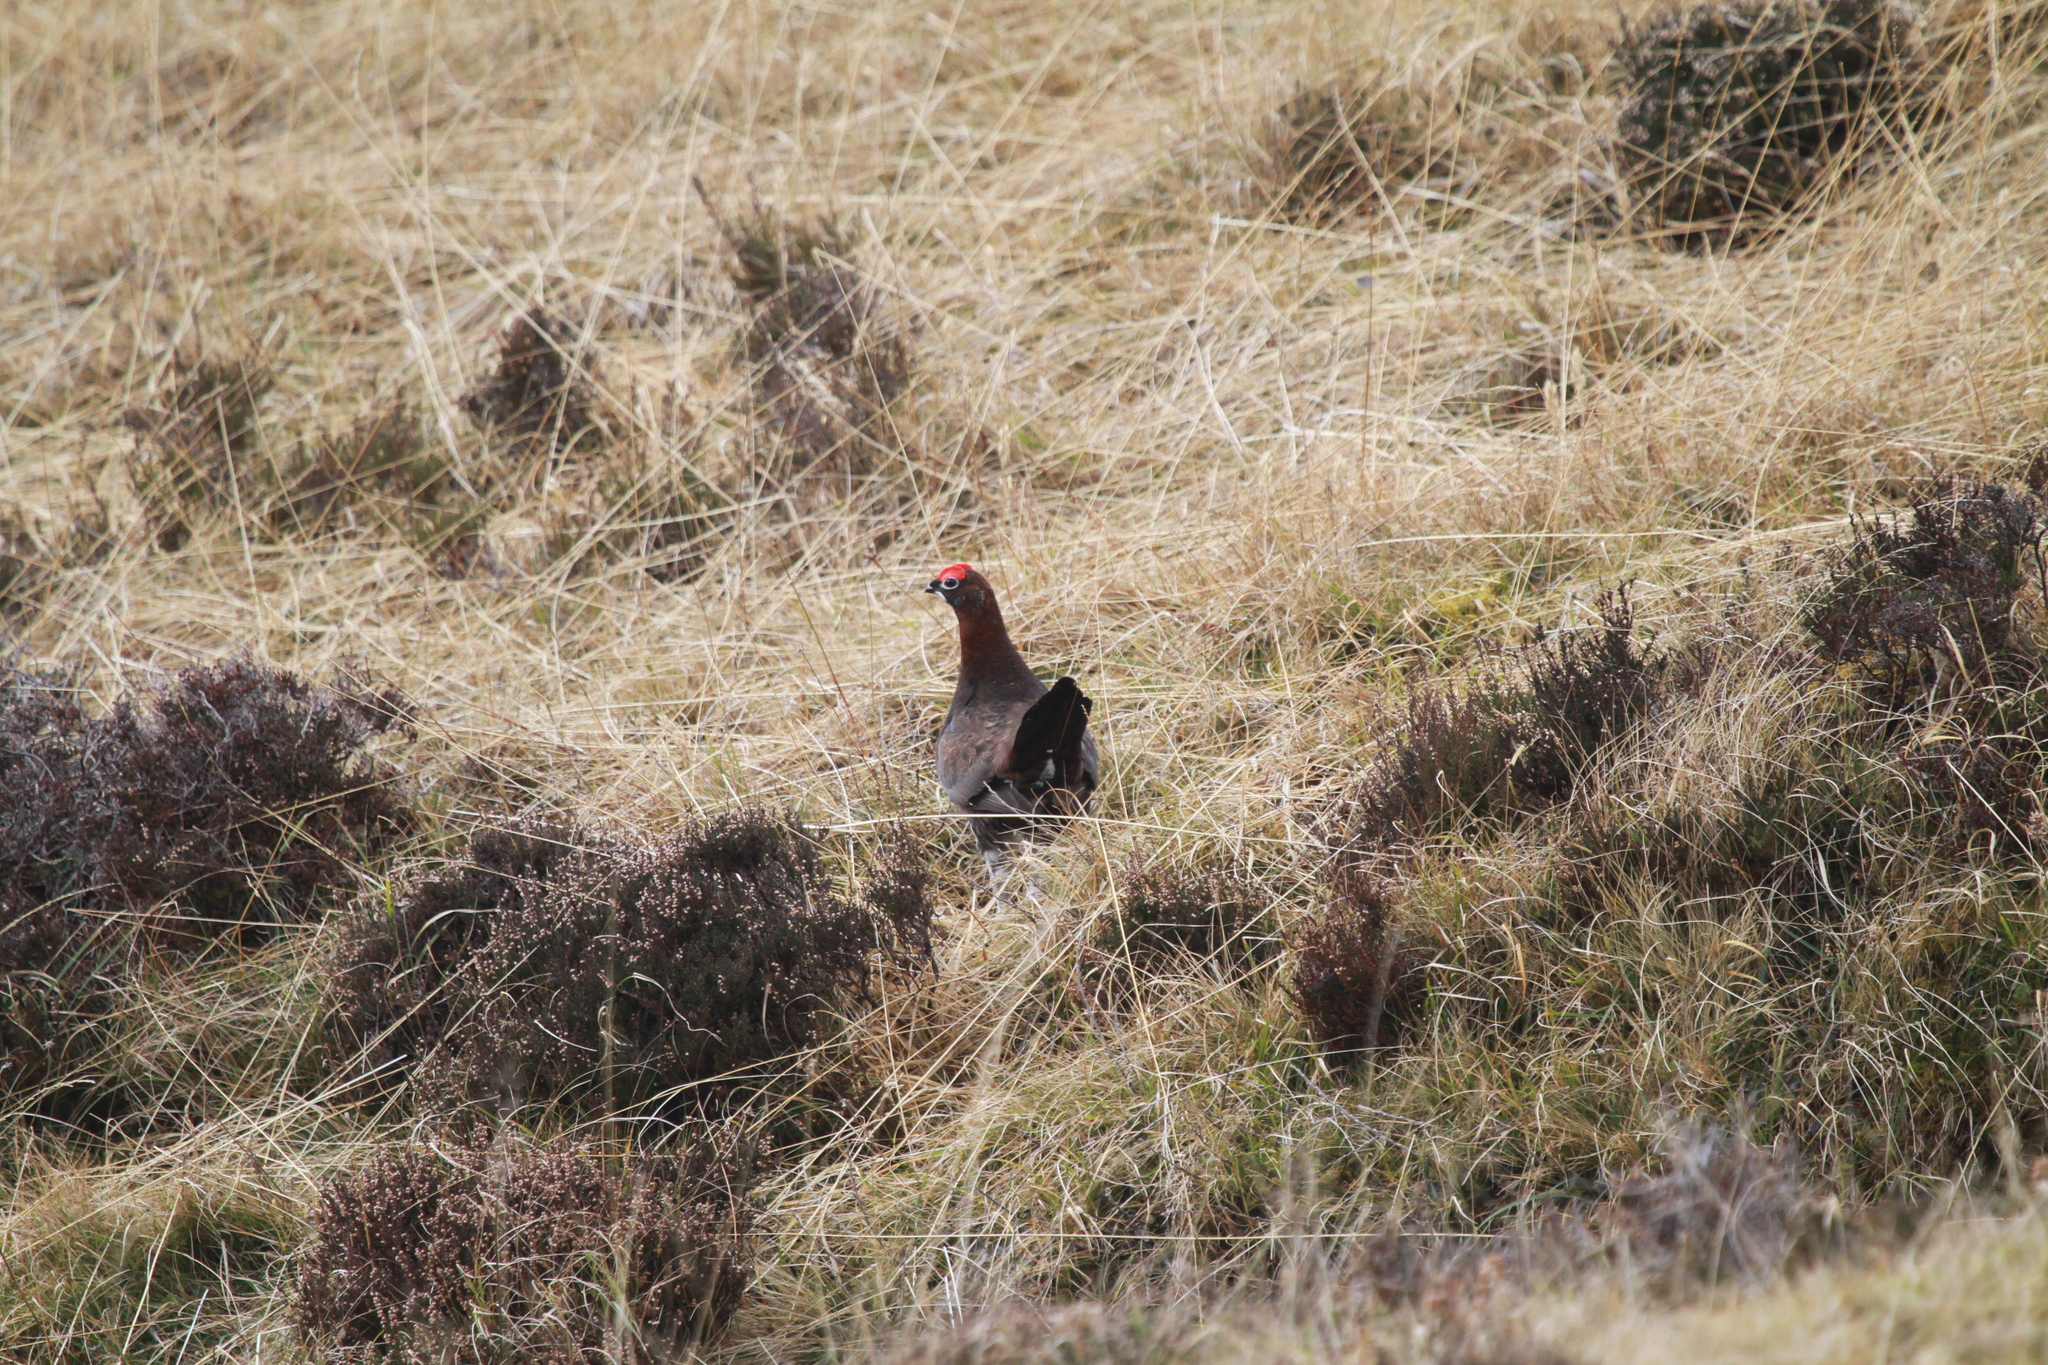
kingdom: Animalia
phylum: Chordata
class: Aves
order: Galliformes
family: Phasianidae
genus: Lagopus
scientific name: Lagopus lagopus
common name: Willow ptarmigan
